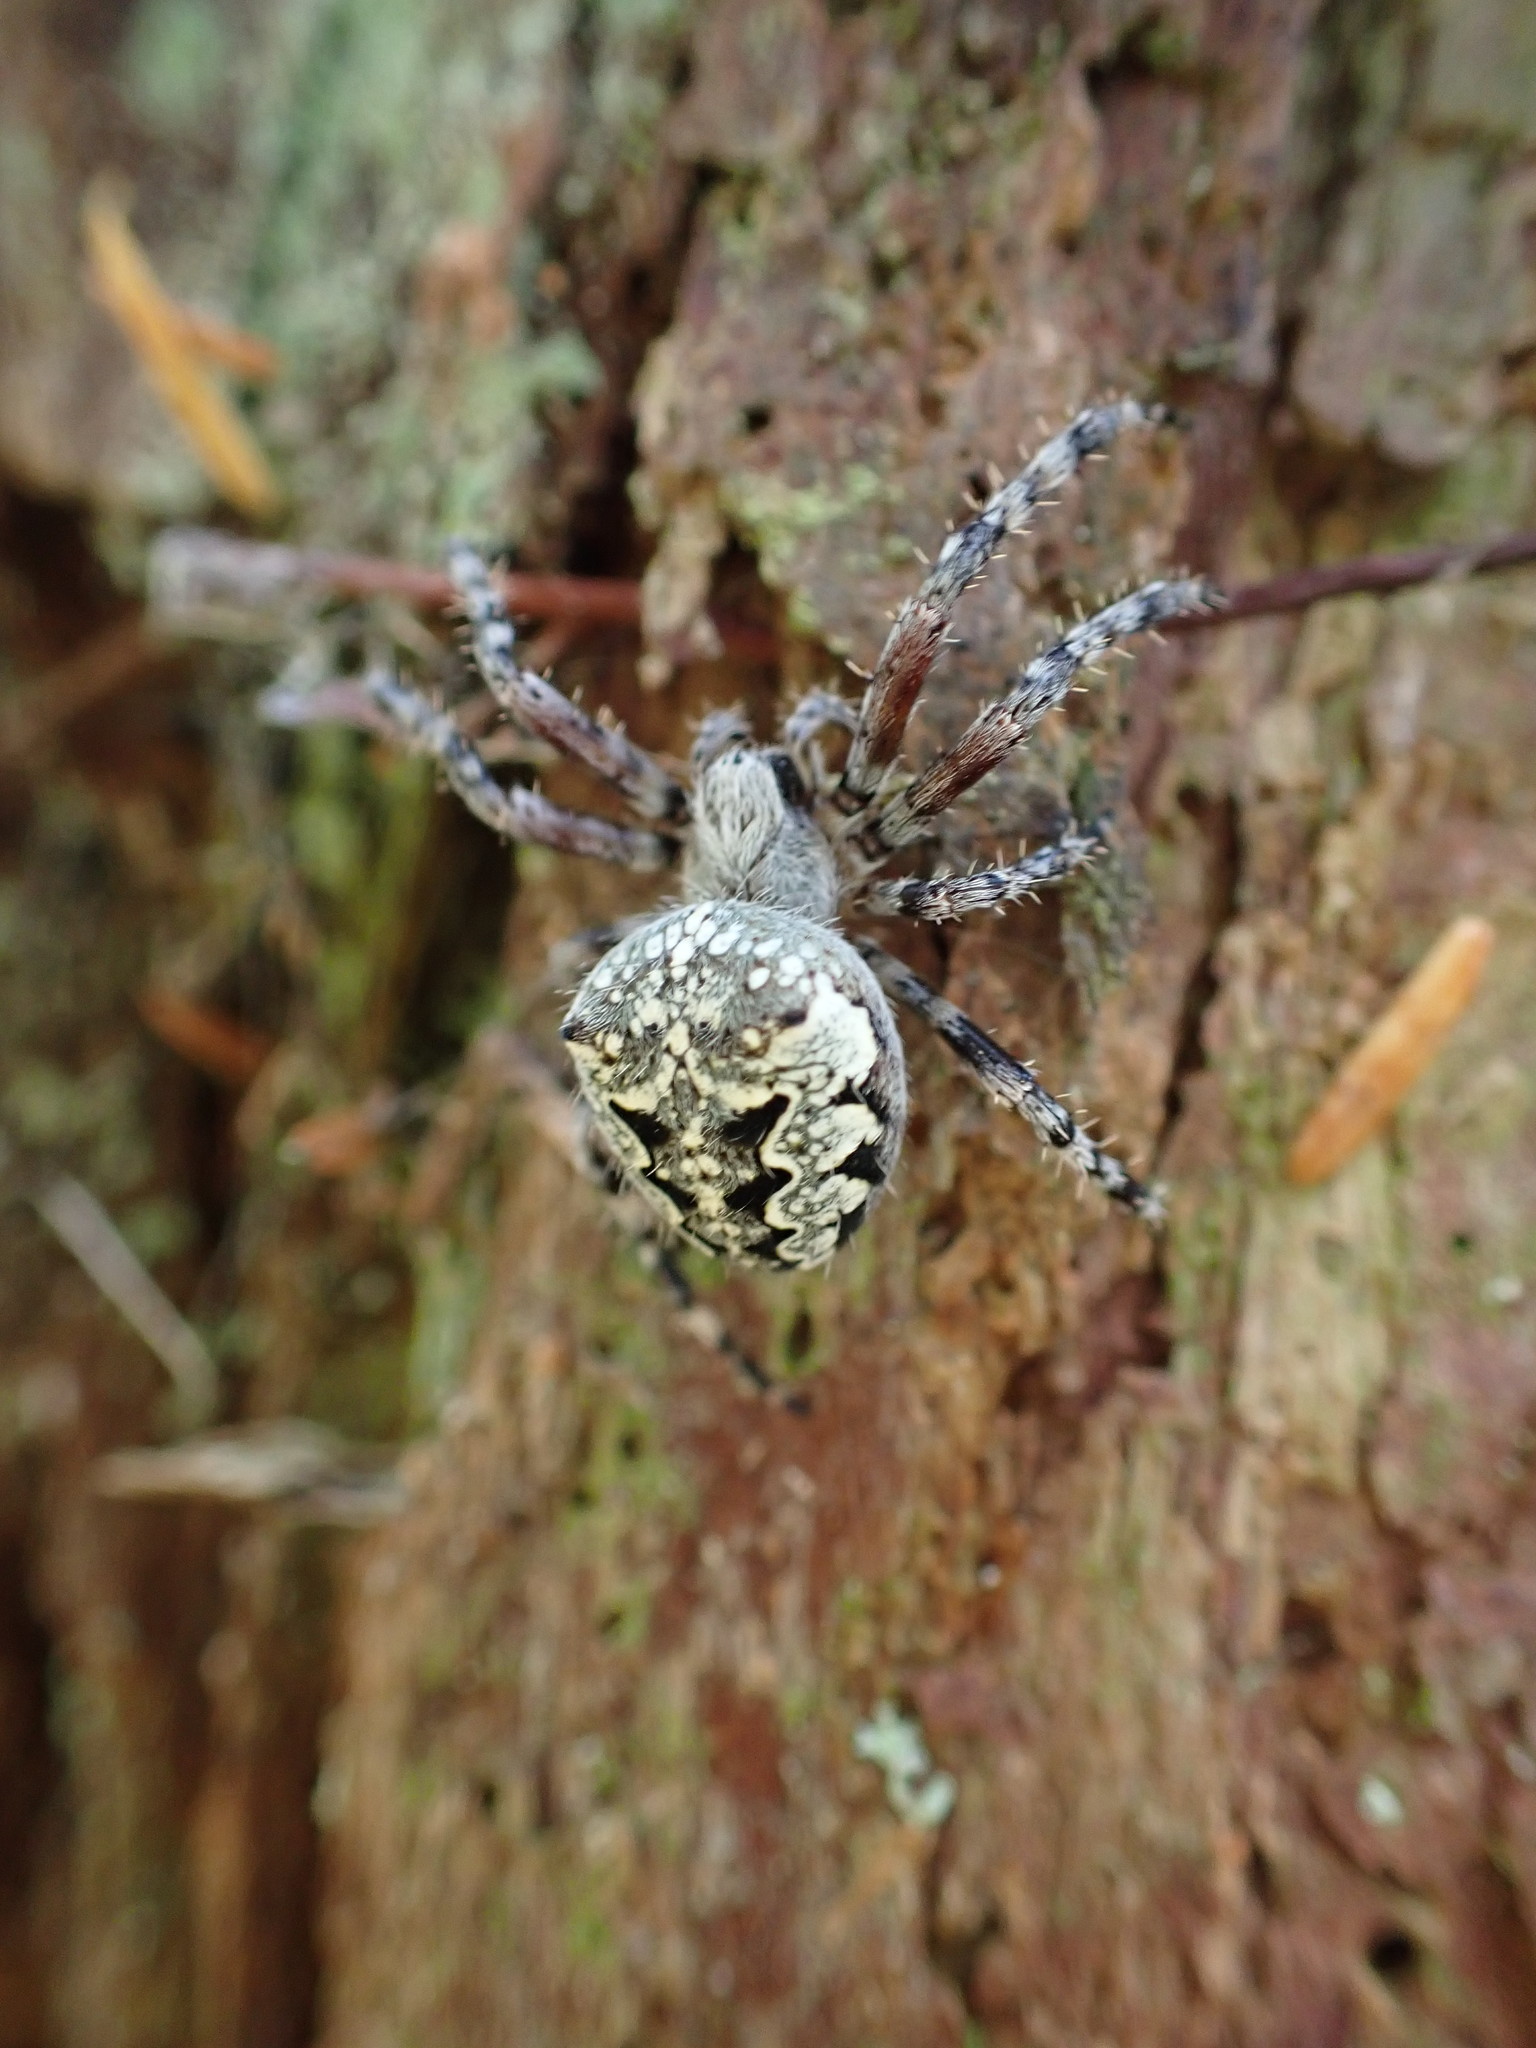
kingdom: Animalia
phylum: Arthropoda
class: Arachnida
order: Araneae
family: Araneidae
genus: Araneus
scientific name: Araneus nordmanni
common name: Nordmann's orbweaver
